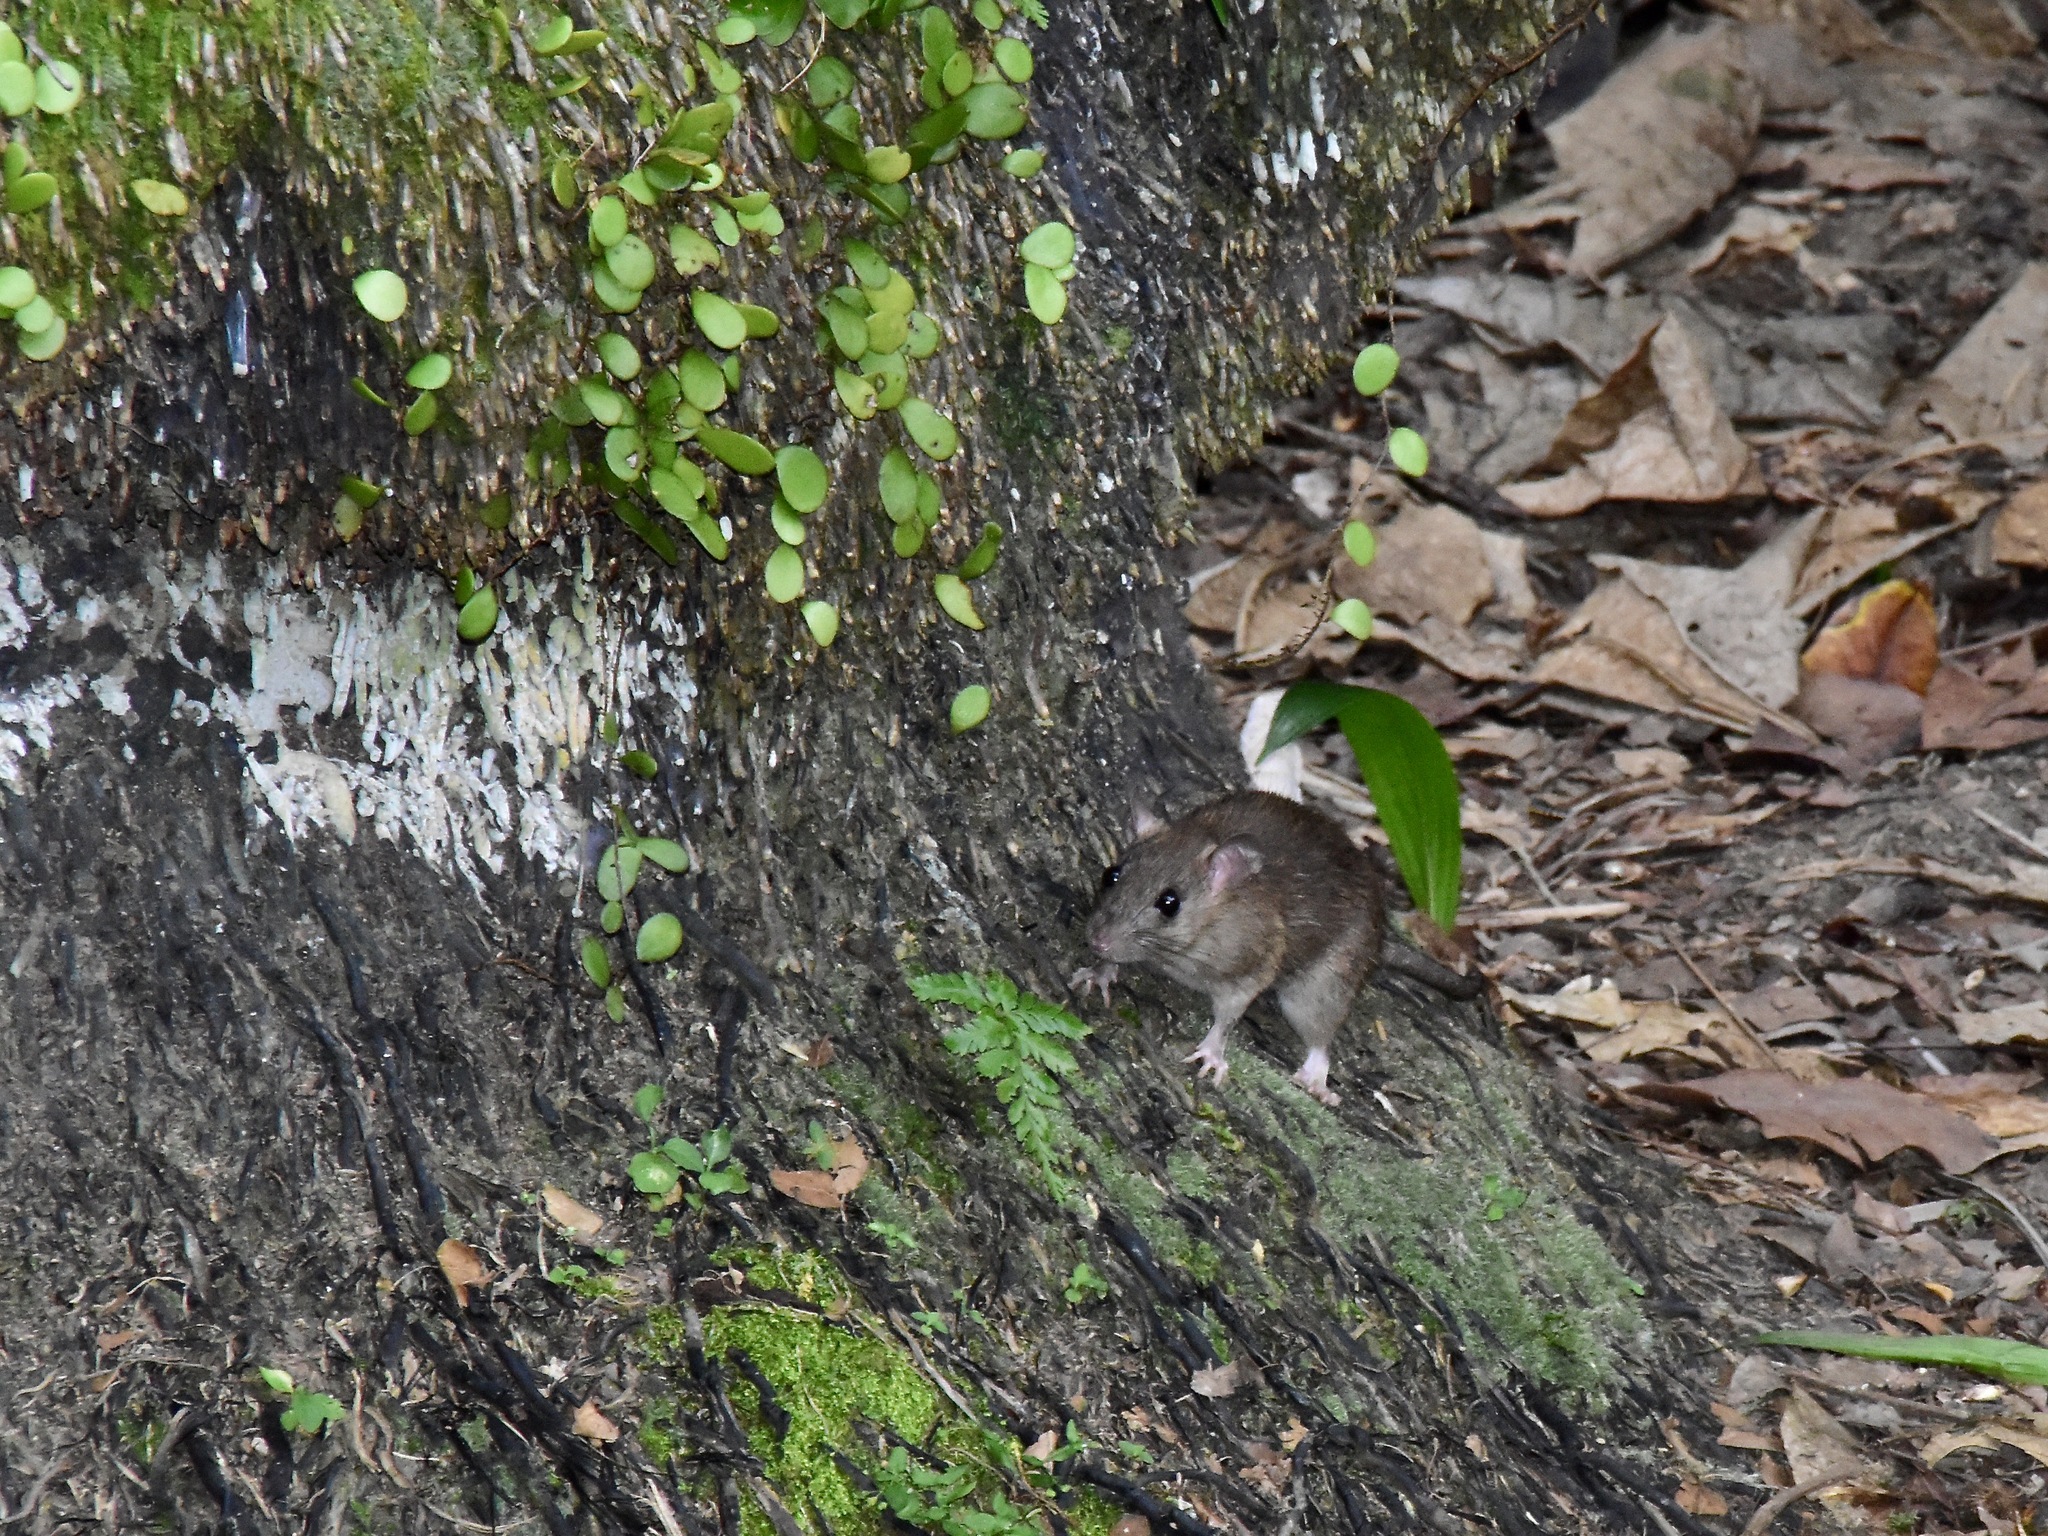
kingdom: Animalia
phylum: Chordata
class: Mammalia
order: Rodentia
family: Muridae
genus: Rattus
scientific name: Rattus tanezumi
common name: Oriental house rat
